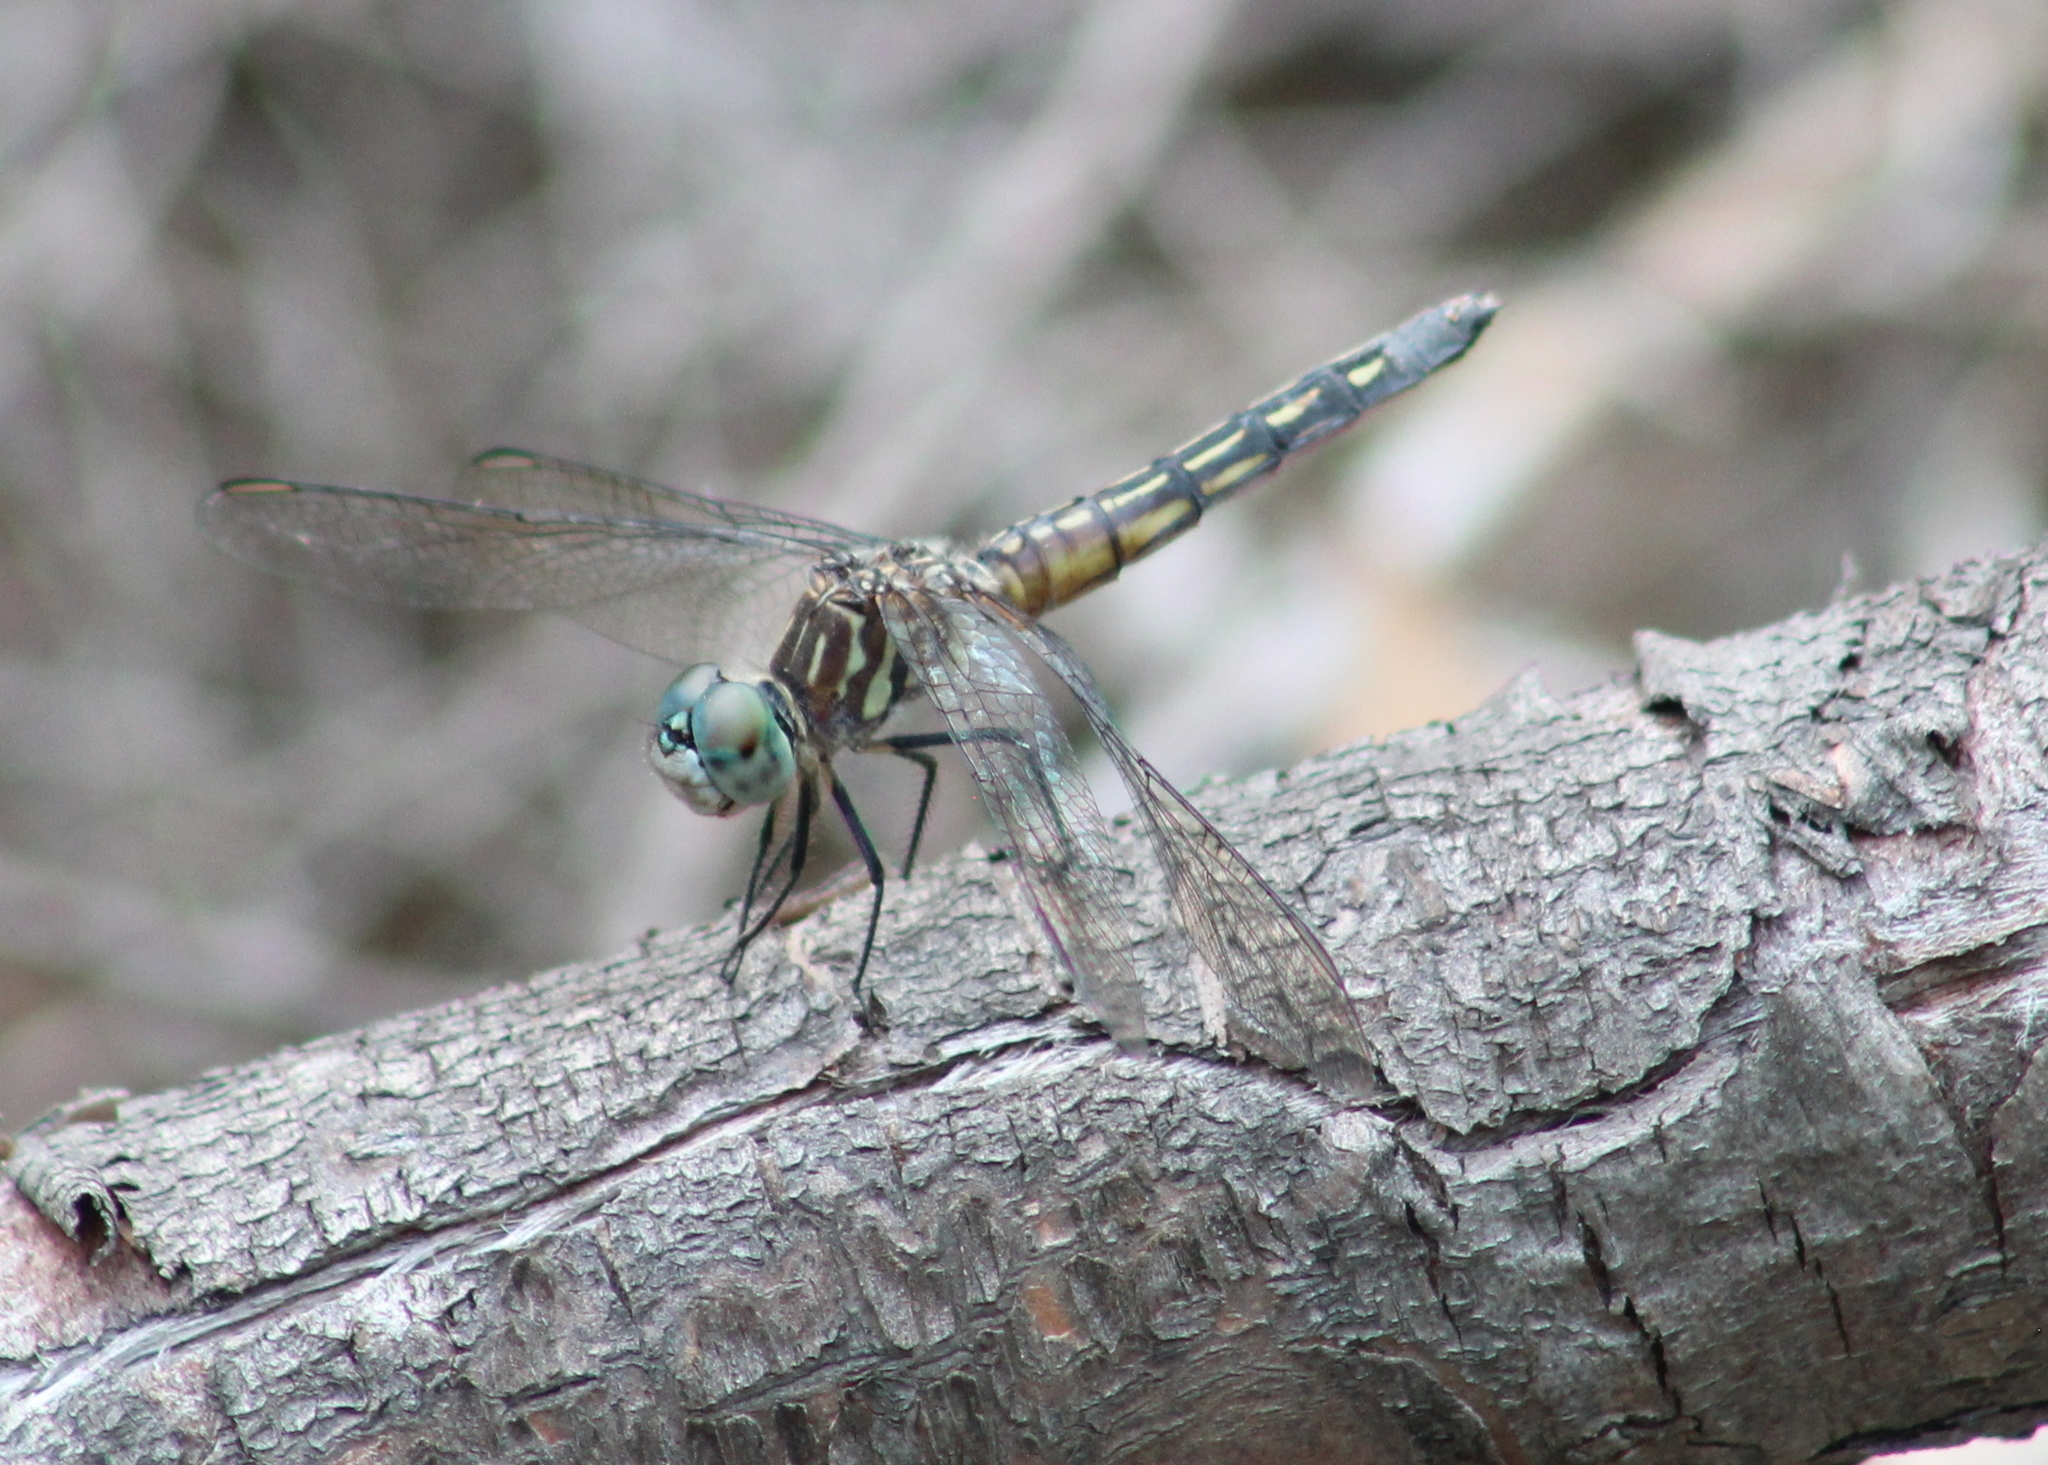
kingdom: Animalia
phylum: Arthropoda
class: Insecta
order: Odonata
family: Libellulidae
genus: Pachydiplax
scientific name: Pachydiplax longipennis
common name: Blue dasher
